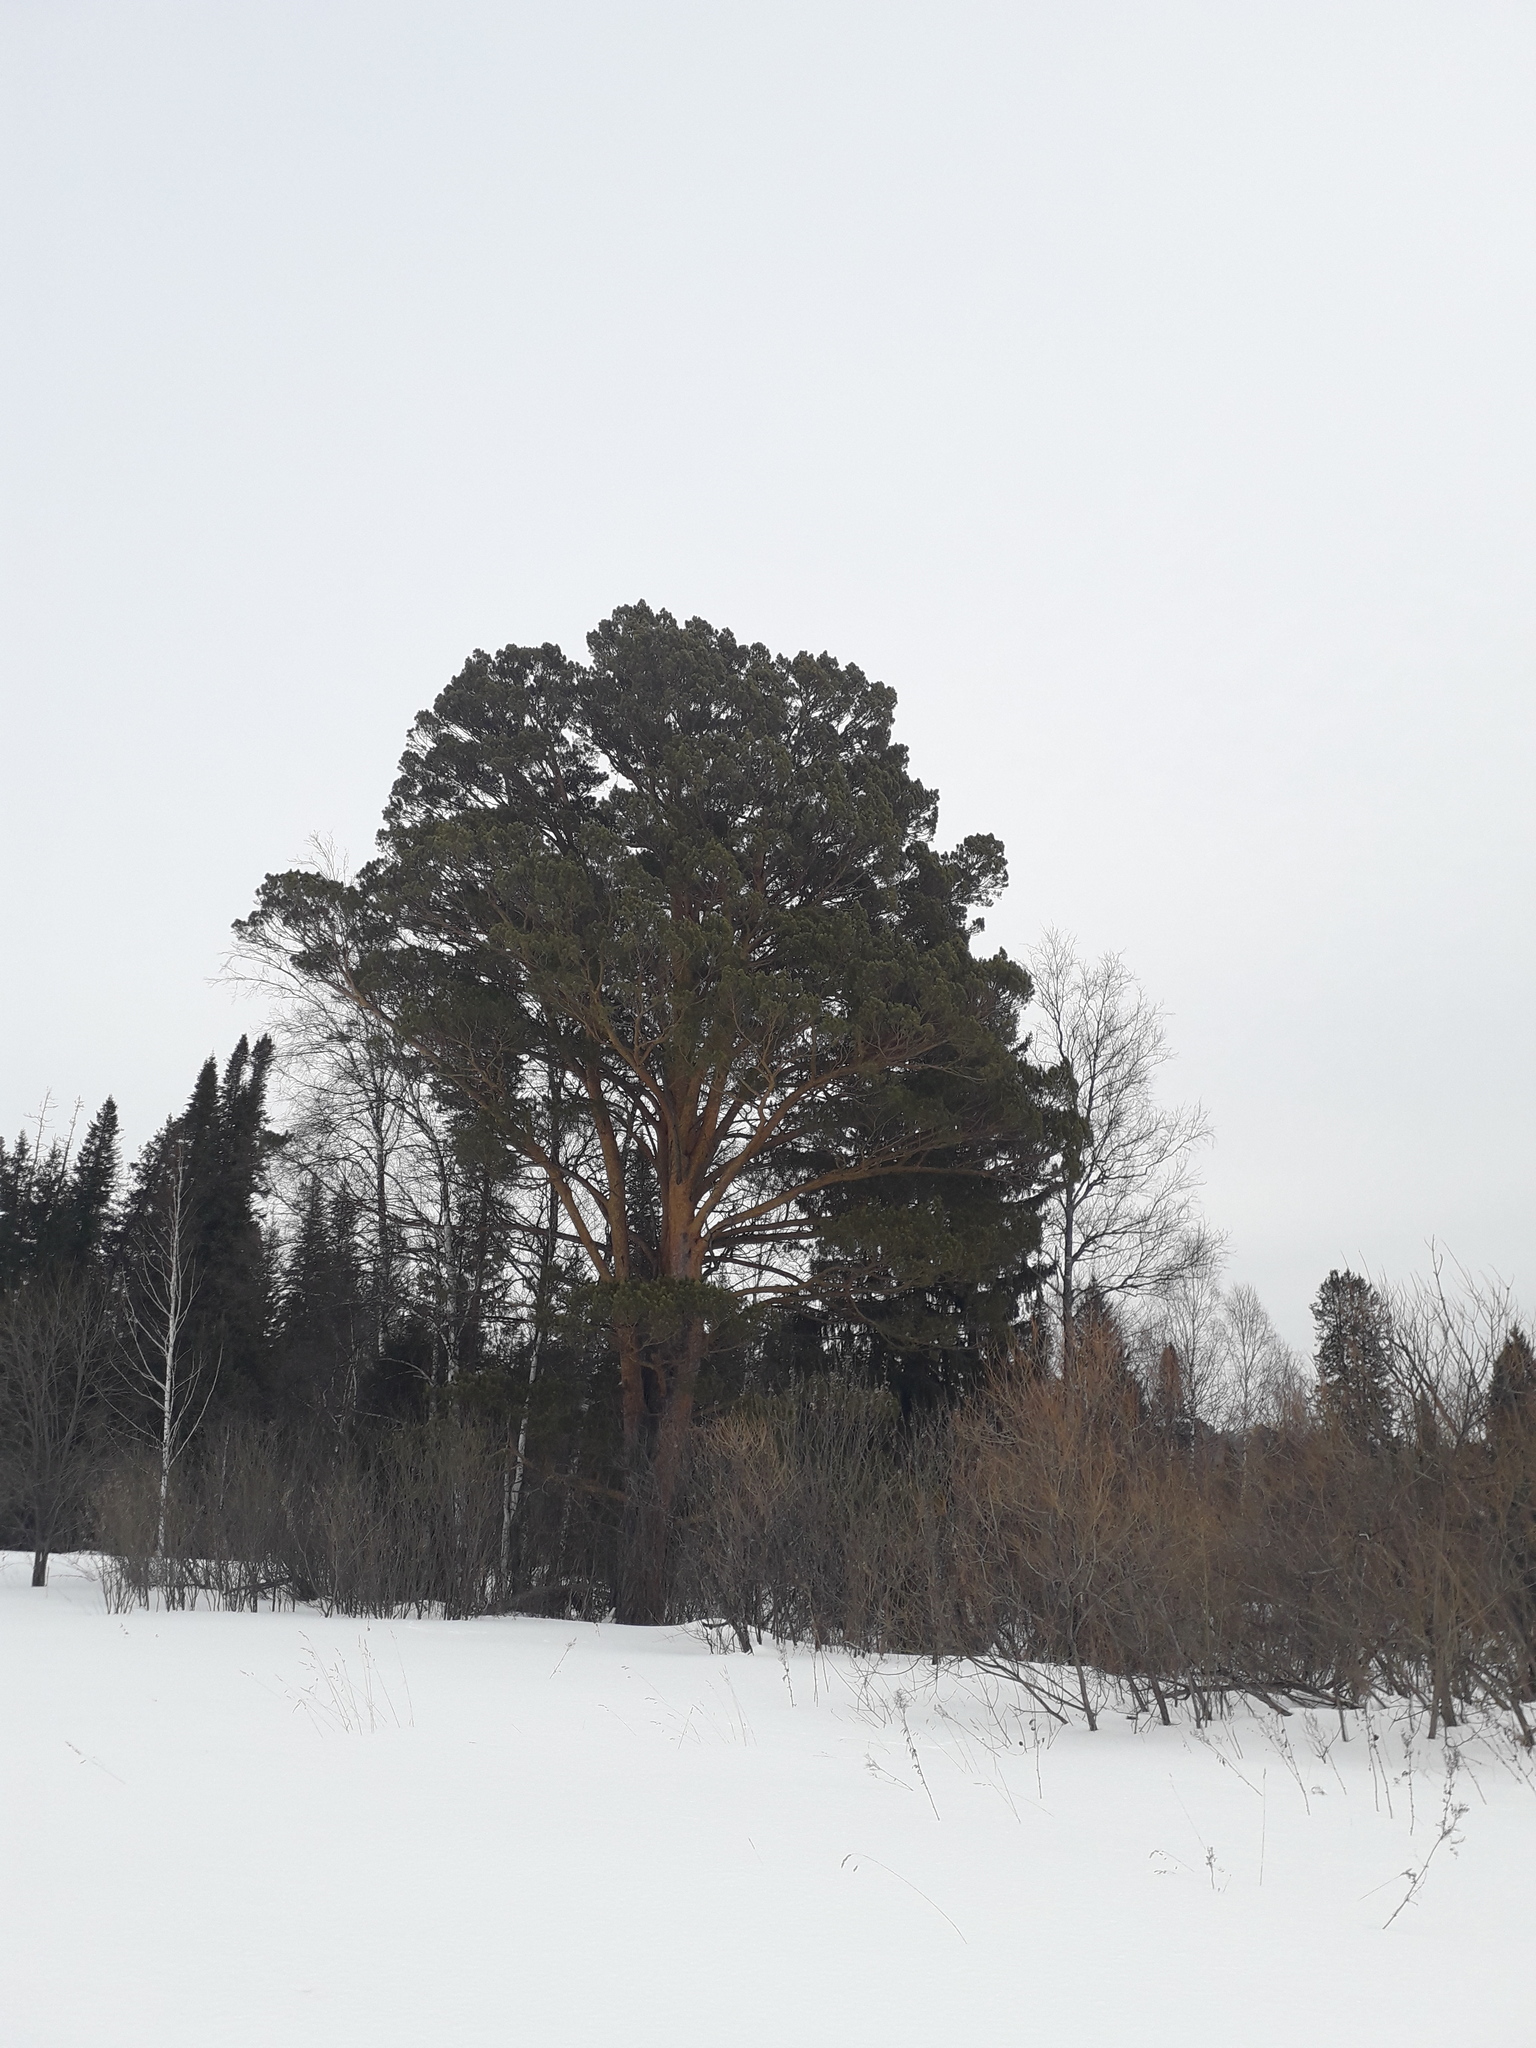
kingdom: Plantae
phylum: Tracheophyta
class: Pinopsida
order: Pinales
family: Pinaceae
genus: Pinus
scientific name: Pinus sylvestris
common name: Scots pine
